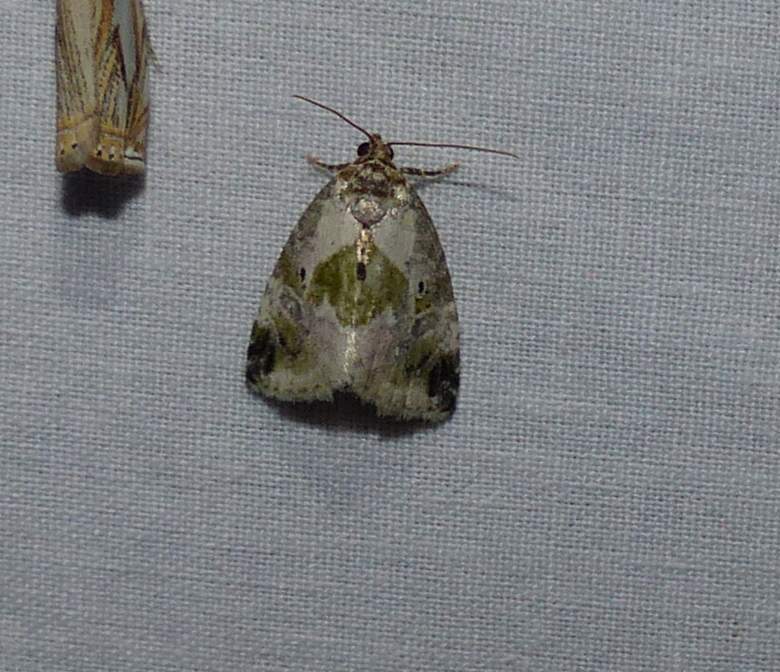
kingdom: Animalia
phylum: Arthropoda
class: Insecta
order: Lepidoptera
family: Noctuidae
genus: Maliattha
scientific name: Maliattha synochitis
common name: Black-dotted glyph
